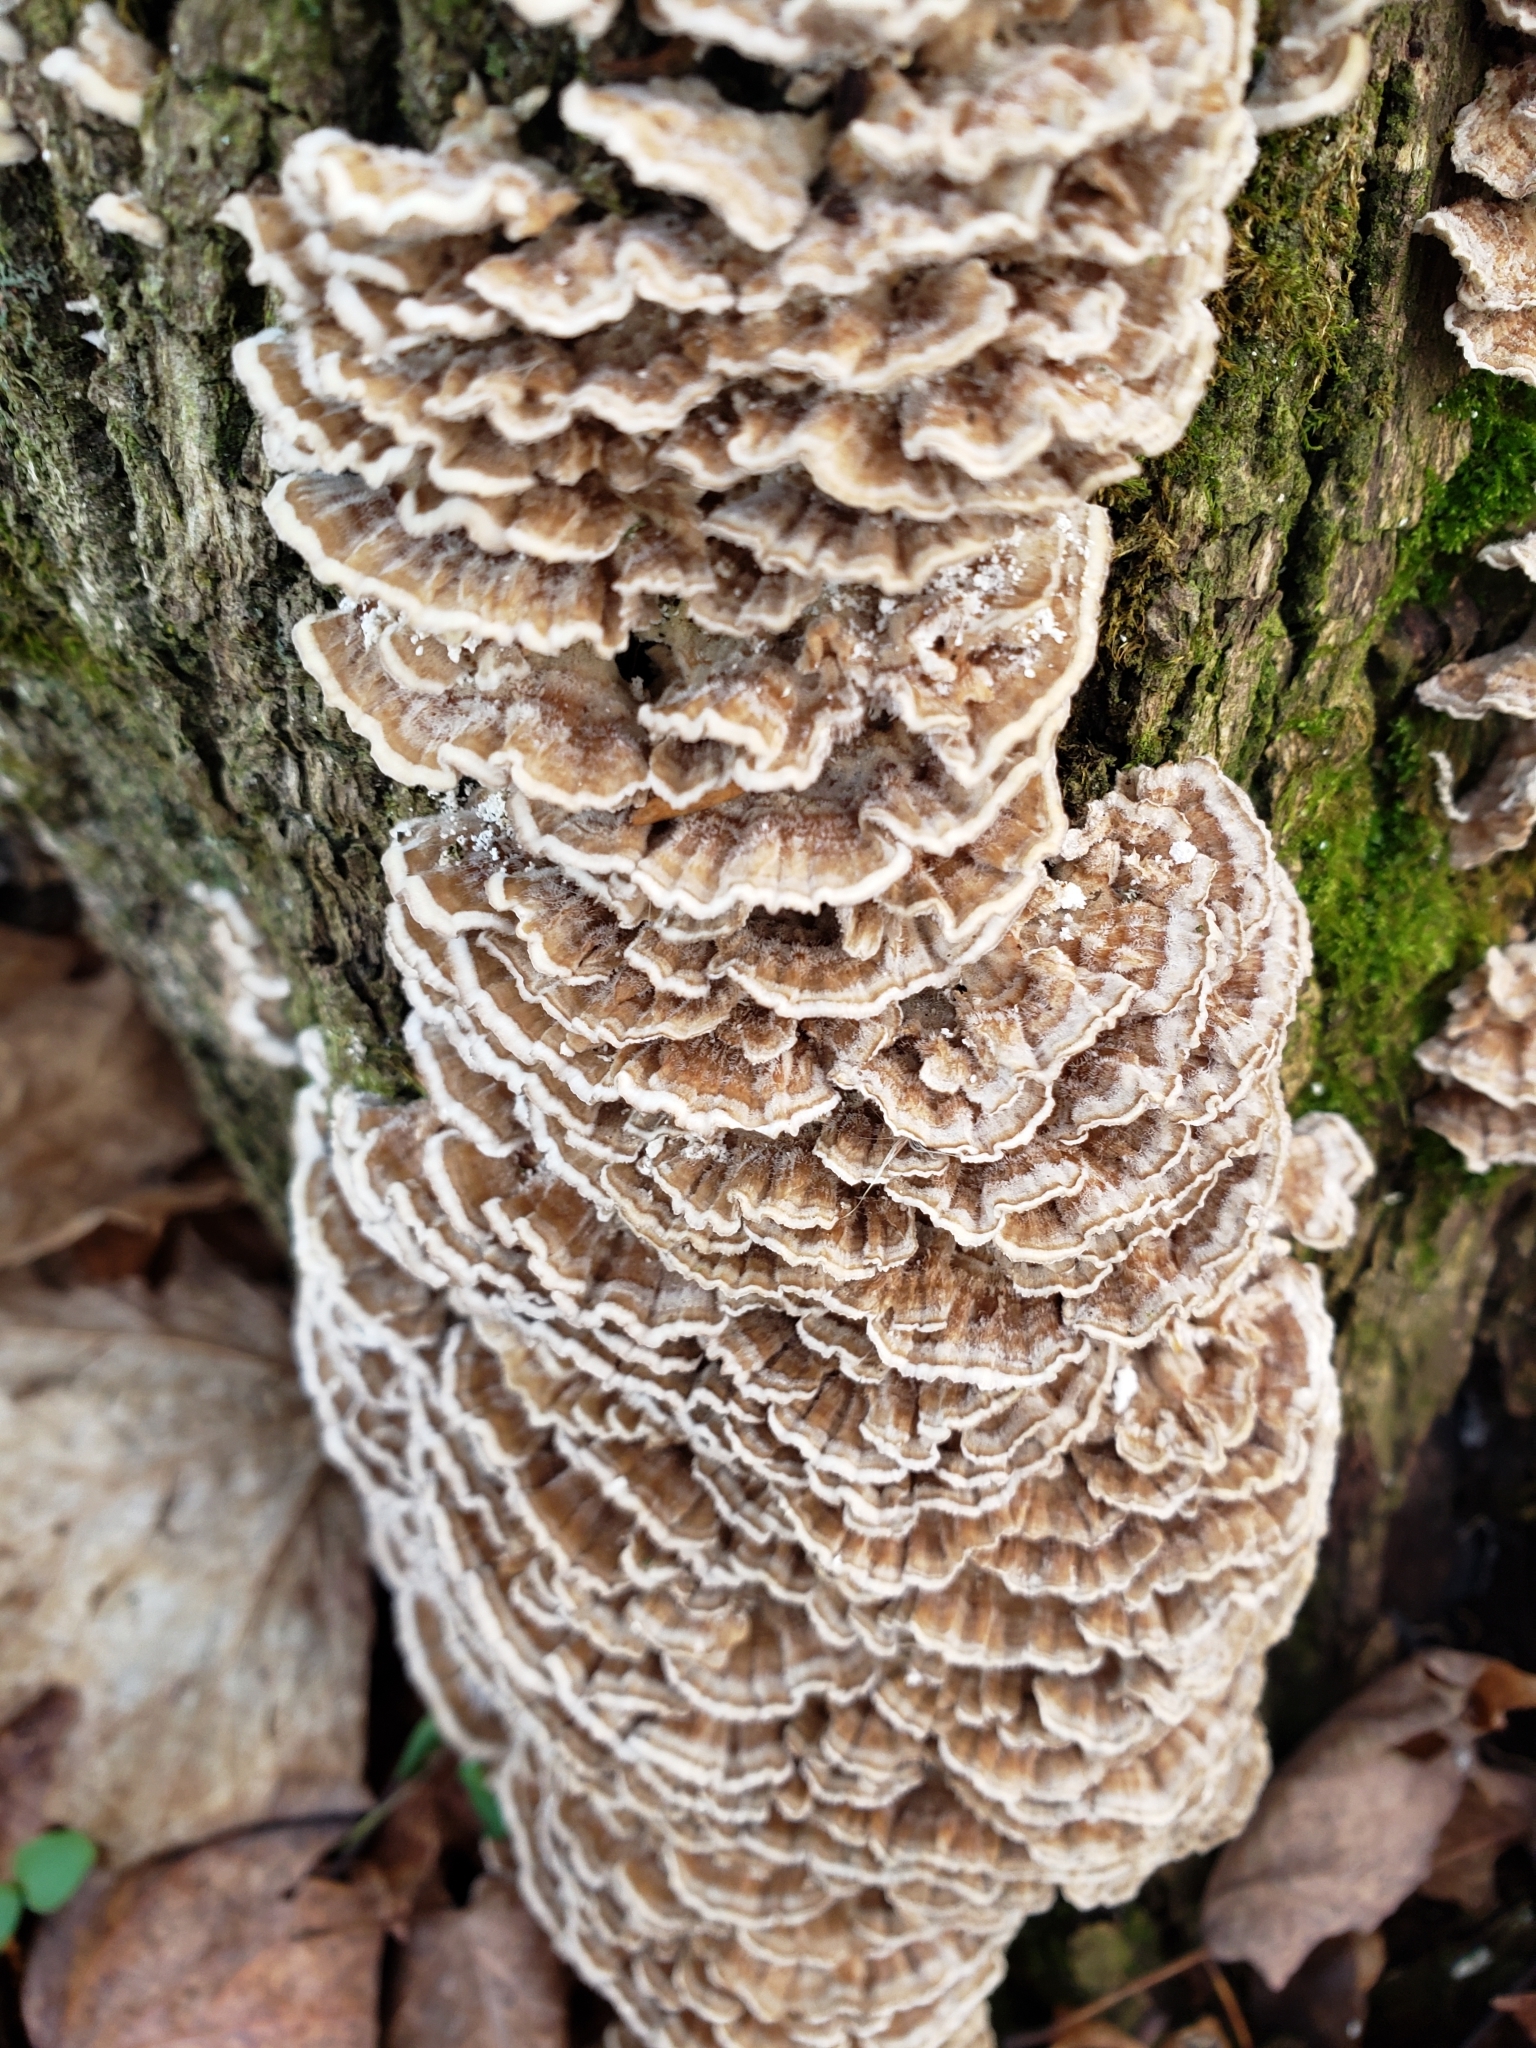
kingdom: Fungi
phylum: Basidiomycota
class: Agaricomycetes
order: Polyporales
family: Polyporaceae
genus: Trametes
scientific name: Trametes versicolor
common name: Turkeytail
